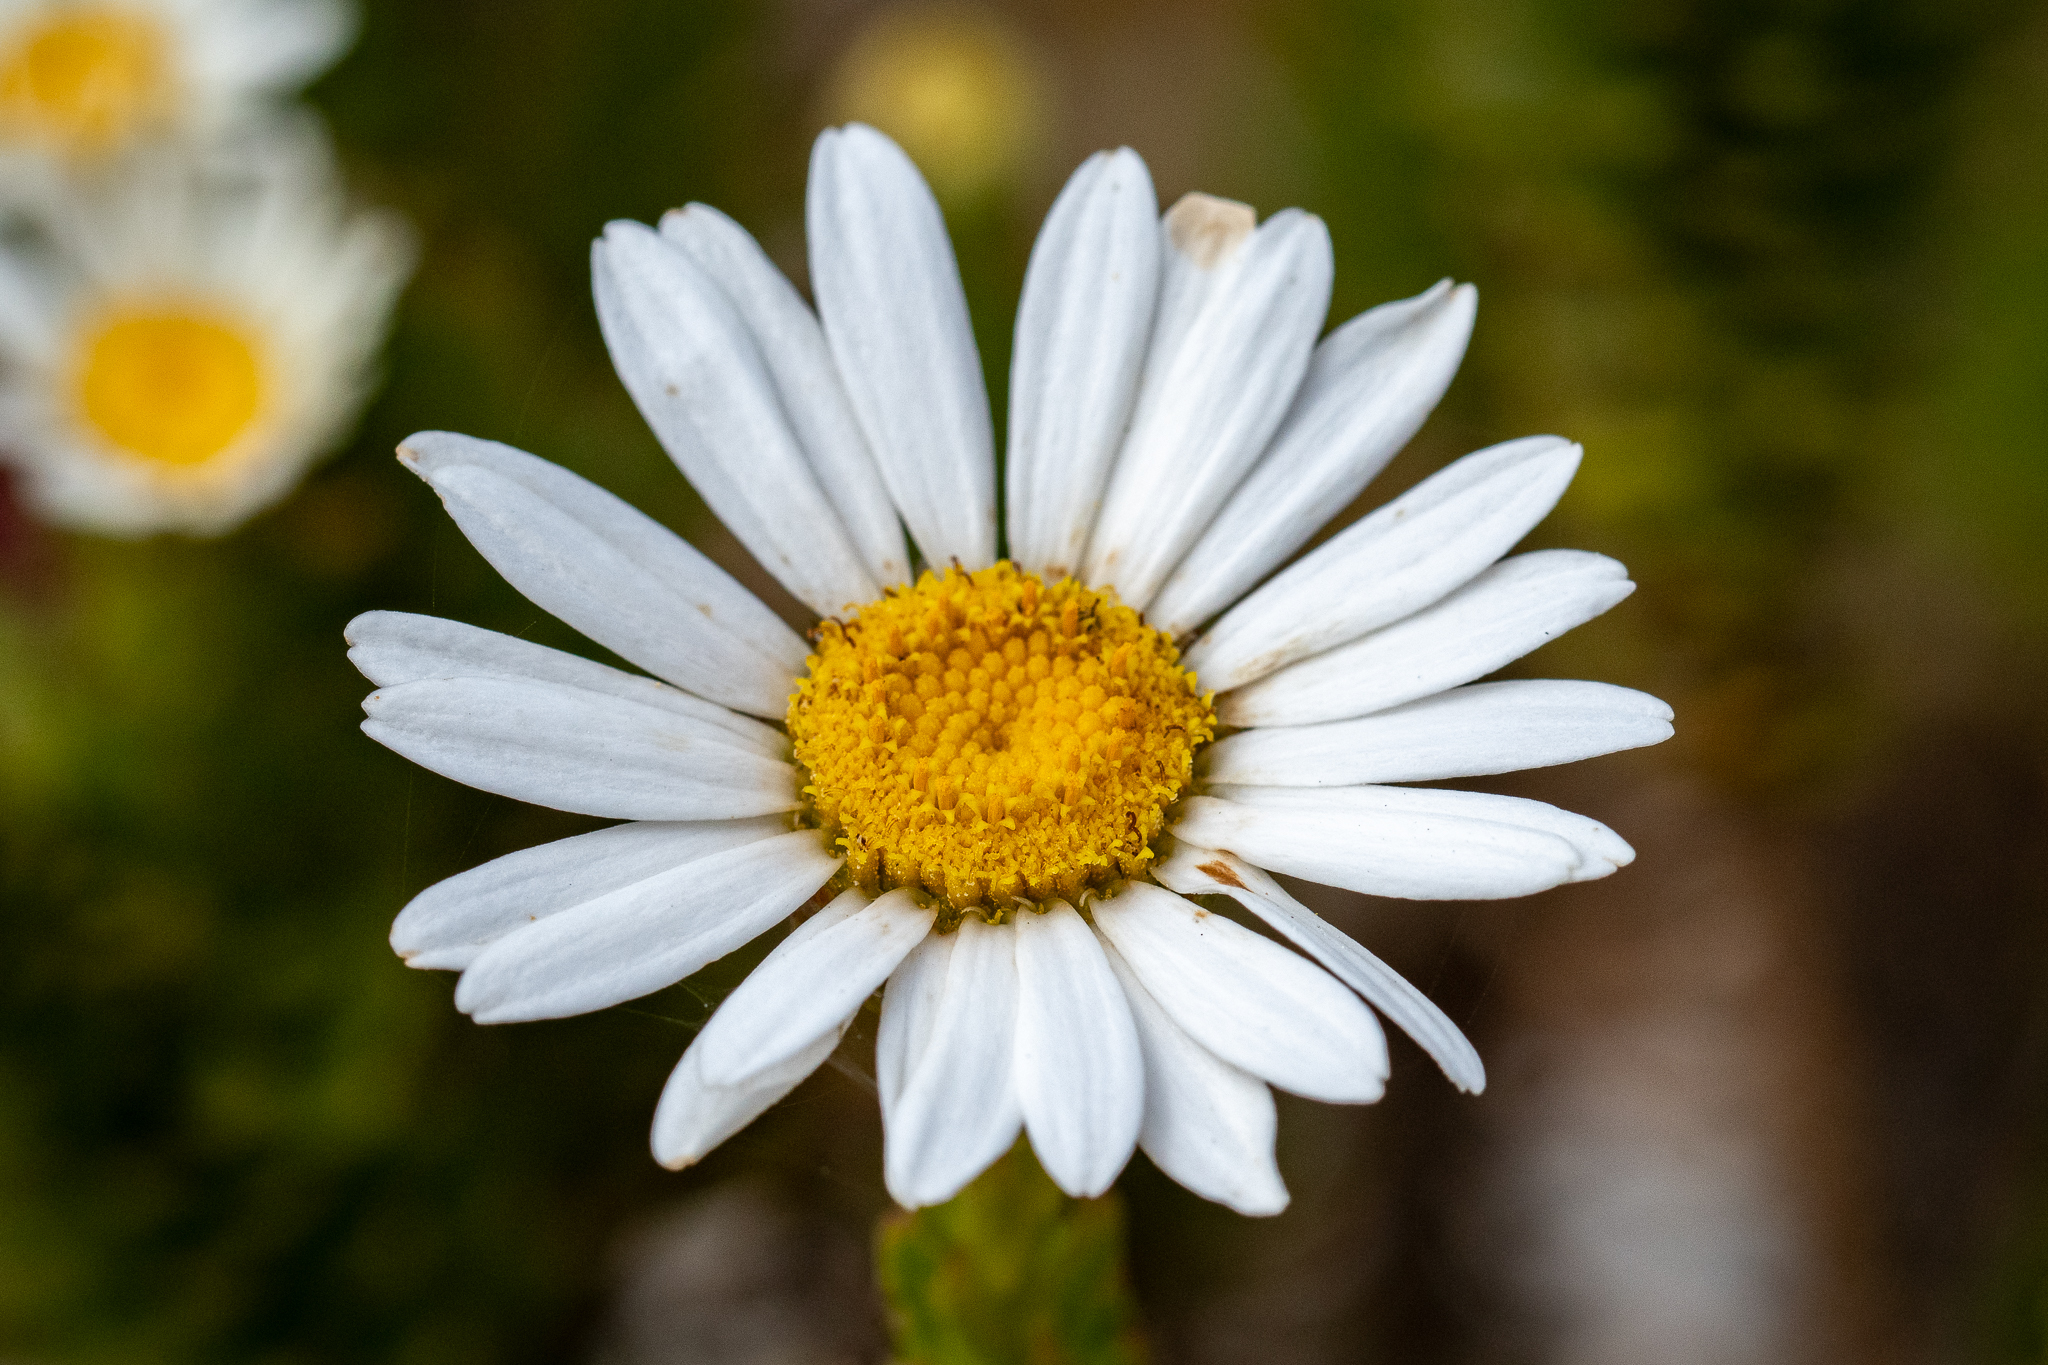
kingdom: Plantae
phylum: Tracheophyta
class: Magnoliopsida
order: Asterales
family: Asteraceae
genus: Osmitopsis
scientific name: Osmitopsis afra
